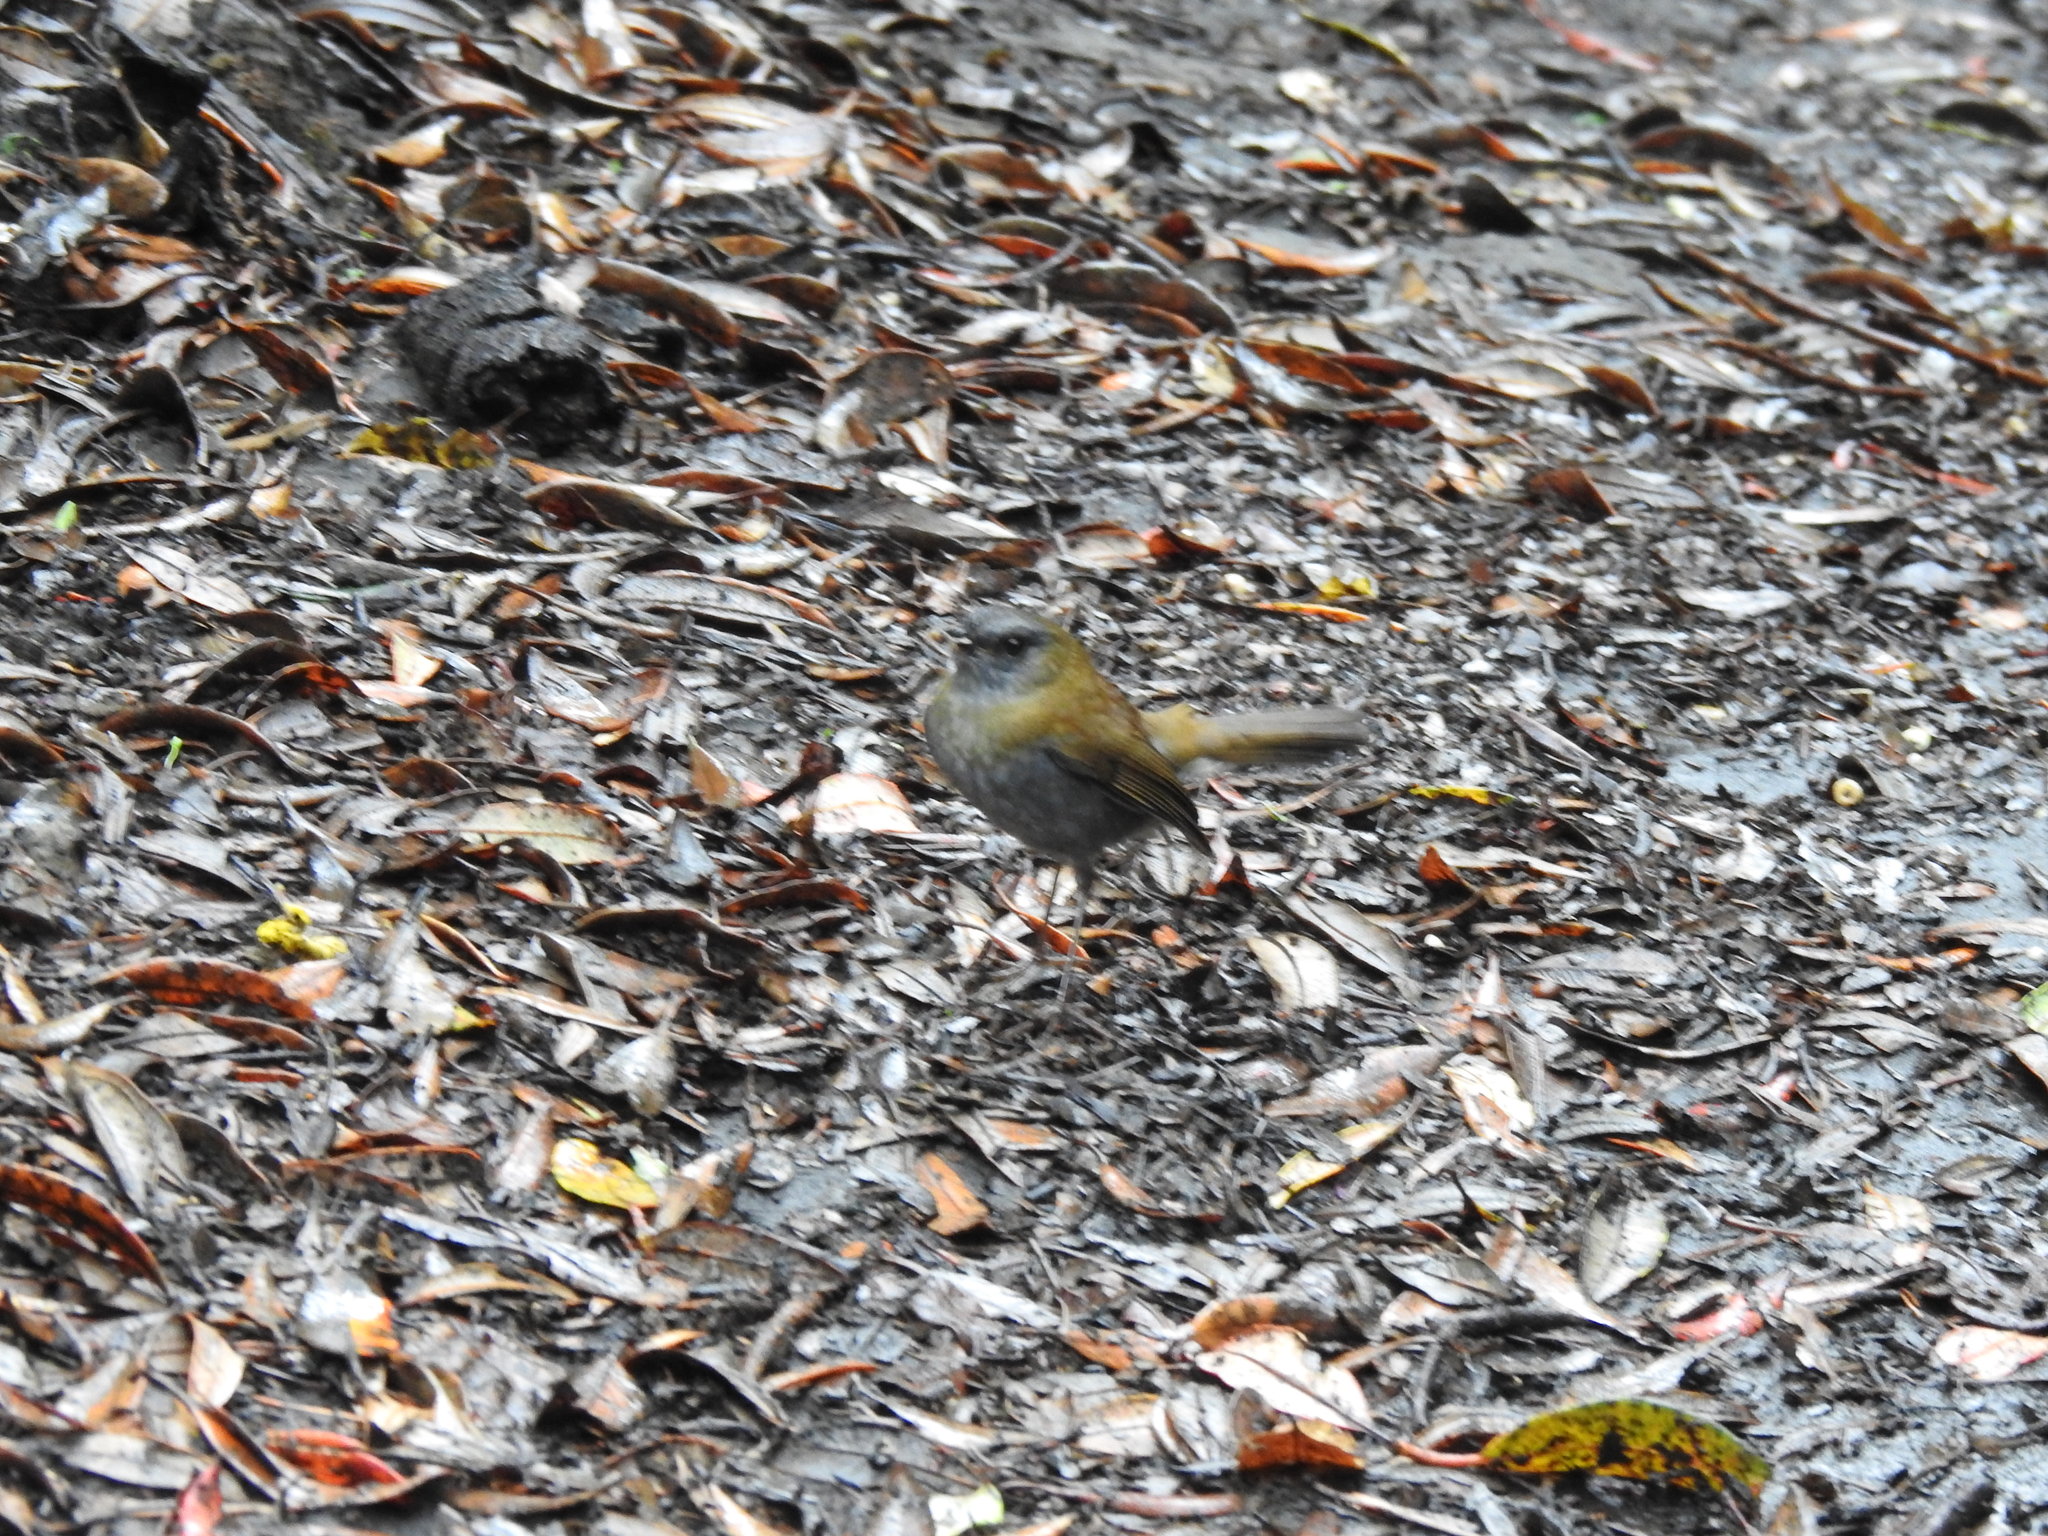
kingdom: Animalia
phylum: Chordata
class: Aves
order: Passeriformes
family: Turdidae
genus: Catharus
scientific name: Catharus gracilirostris
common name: Black-billed nightingale-thrush
